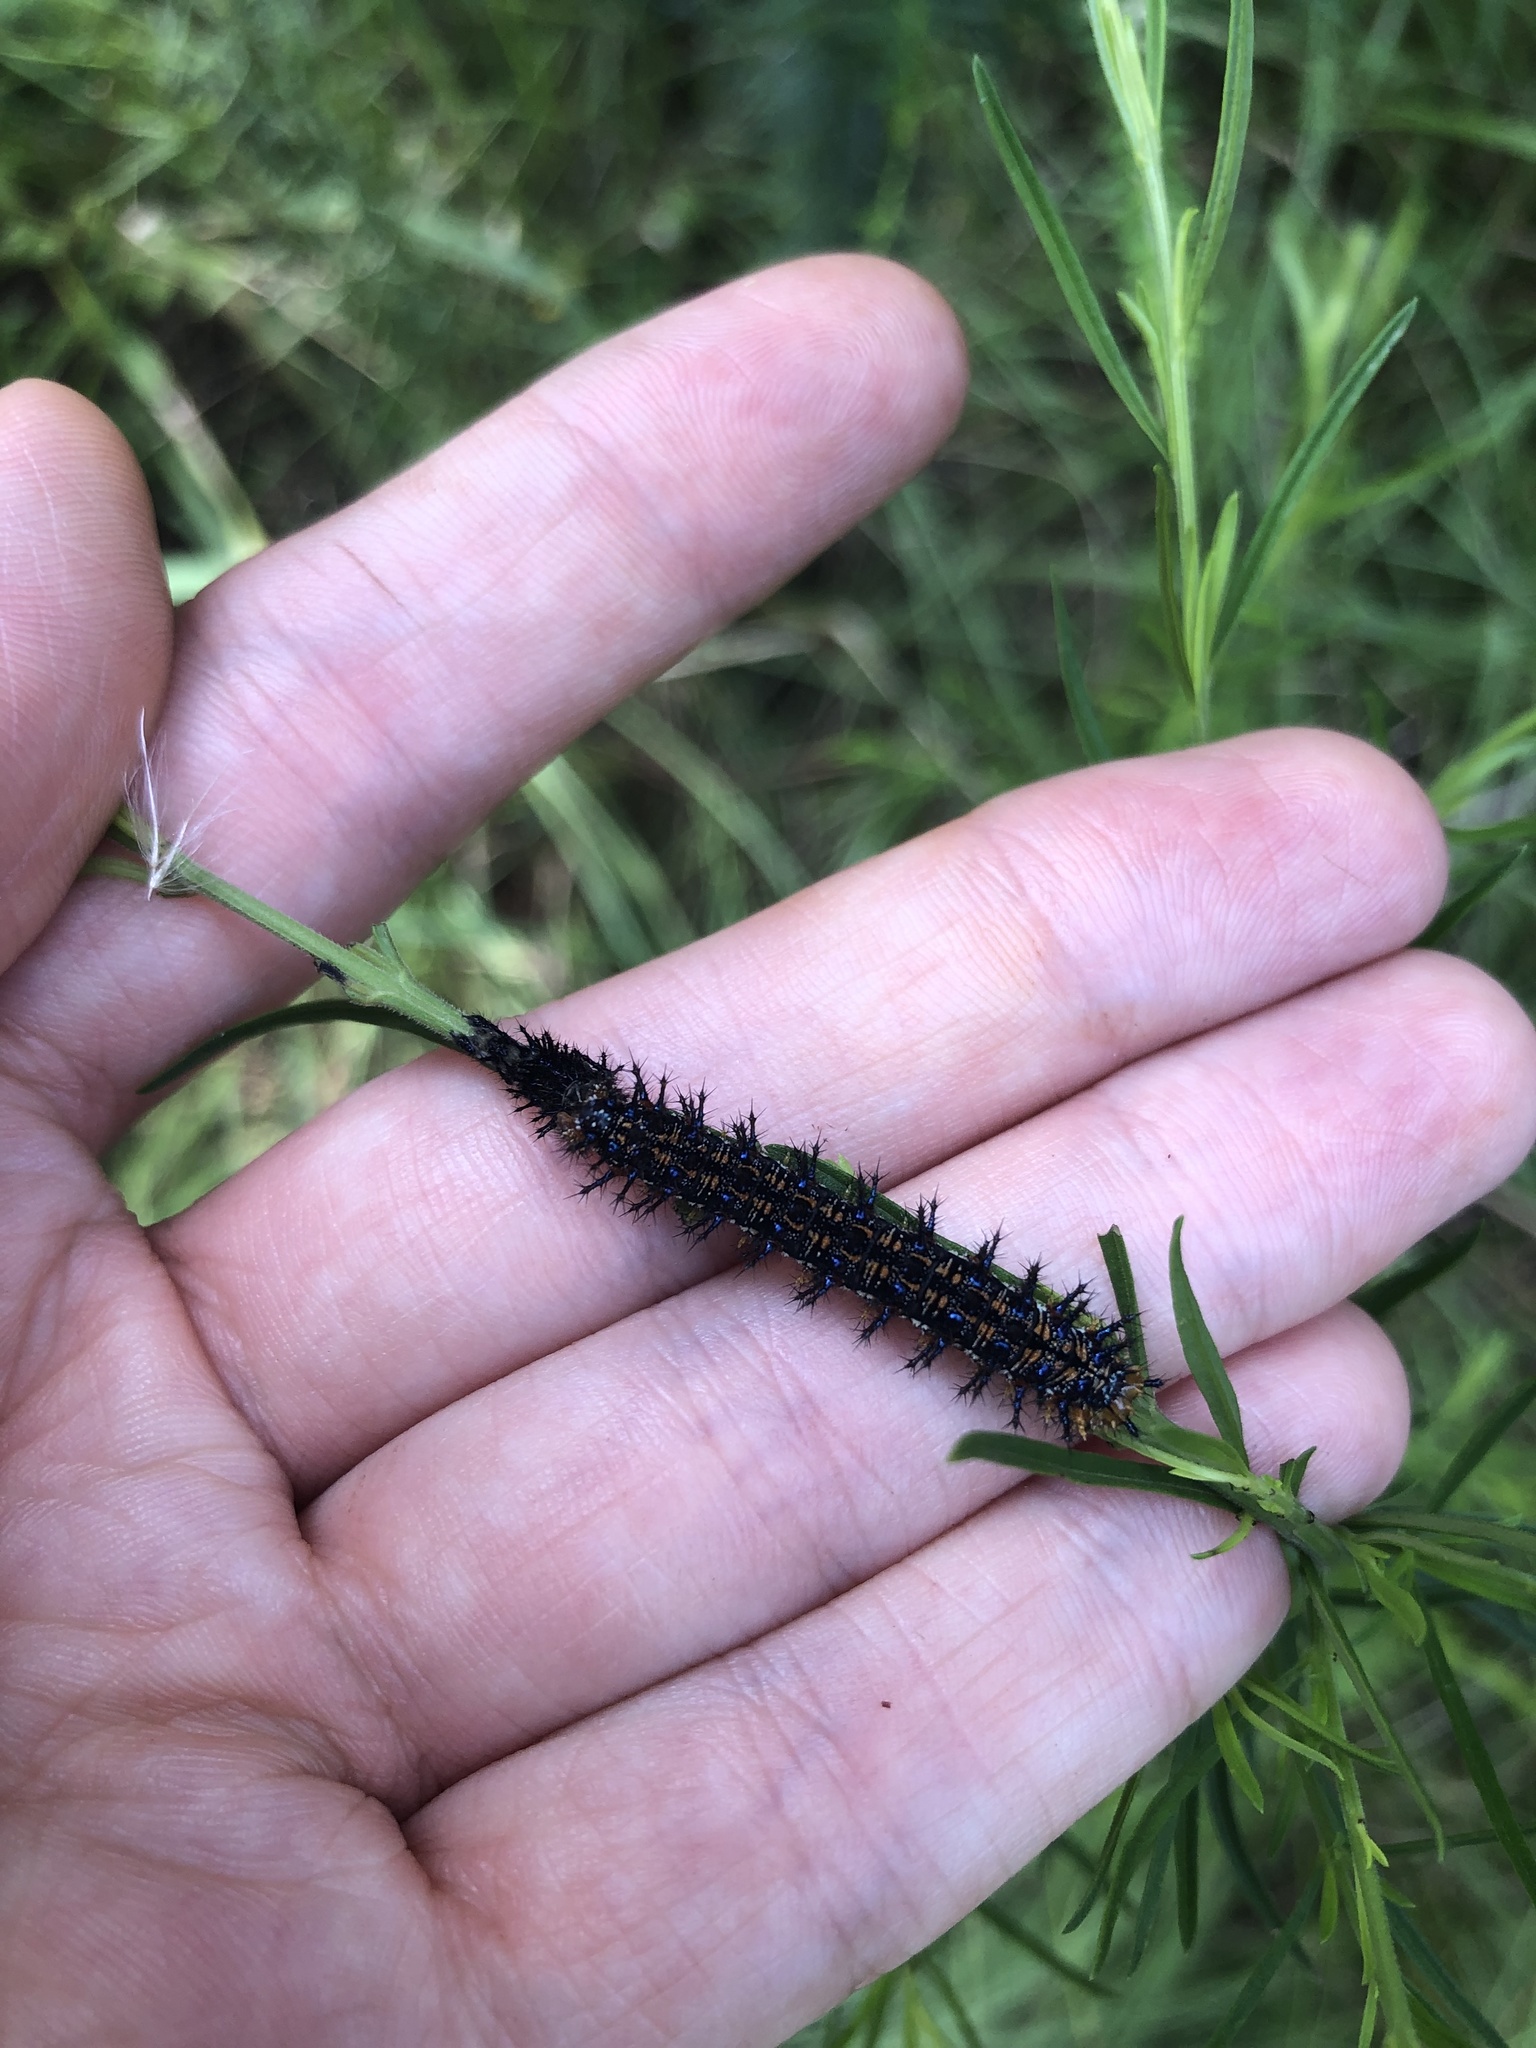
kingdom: Animalia
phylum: Arthropoda
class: Insecta
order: Lepidoptera
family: Nymphalidae
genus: Junonia
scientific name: Junonia coenia
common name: Common buckeye
